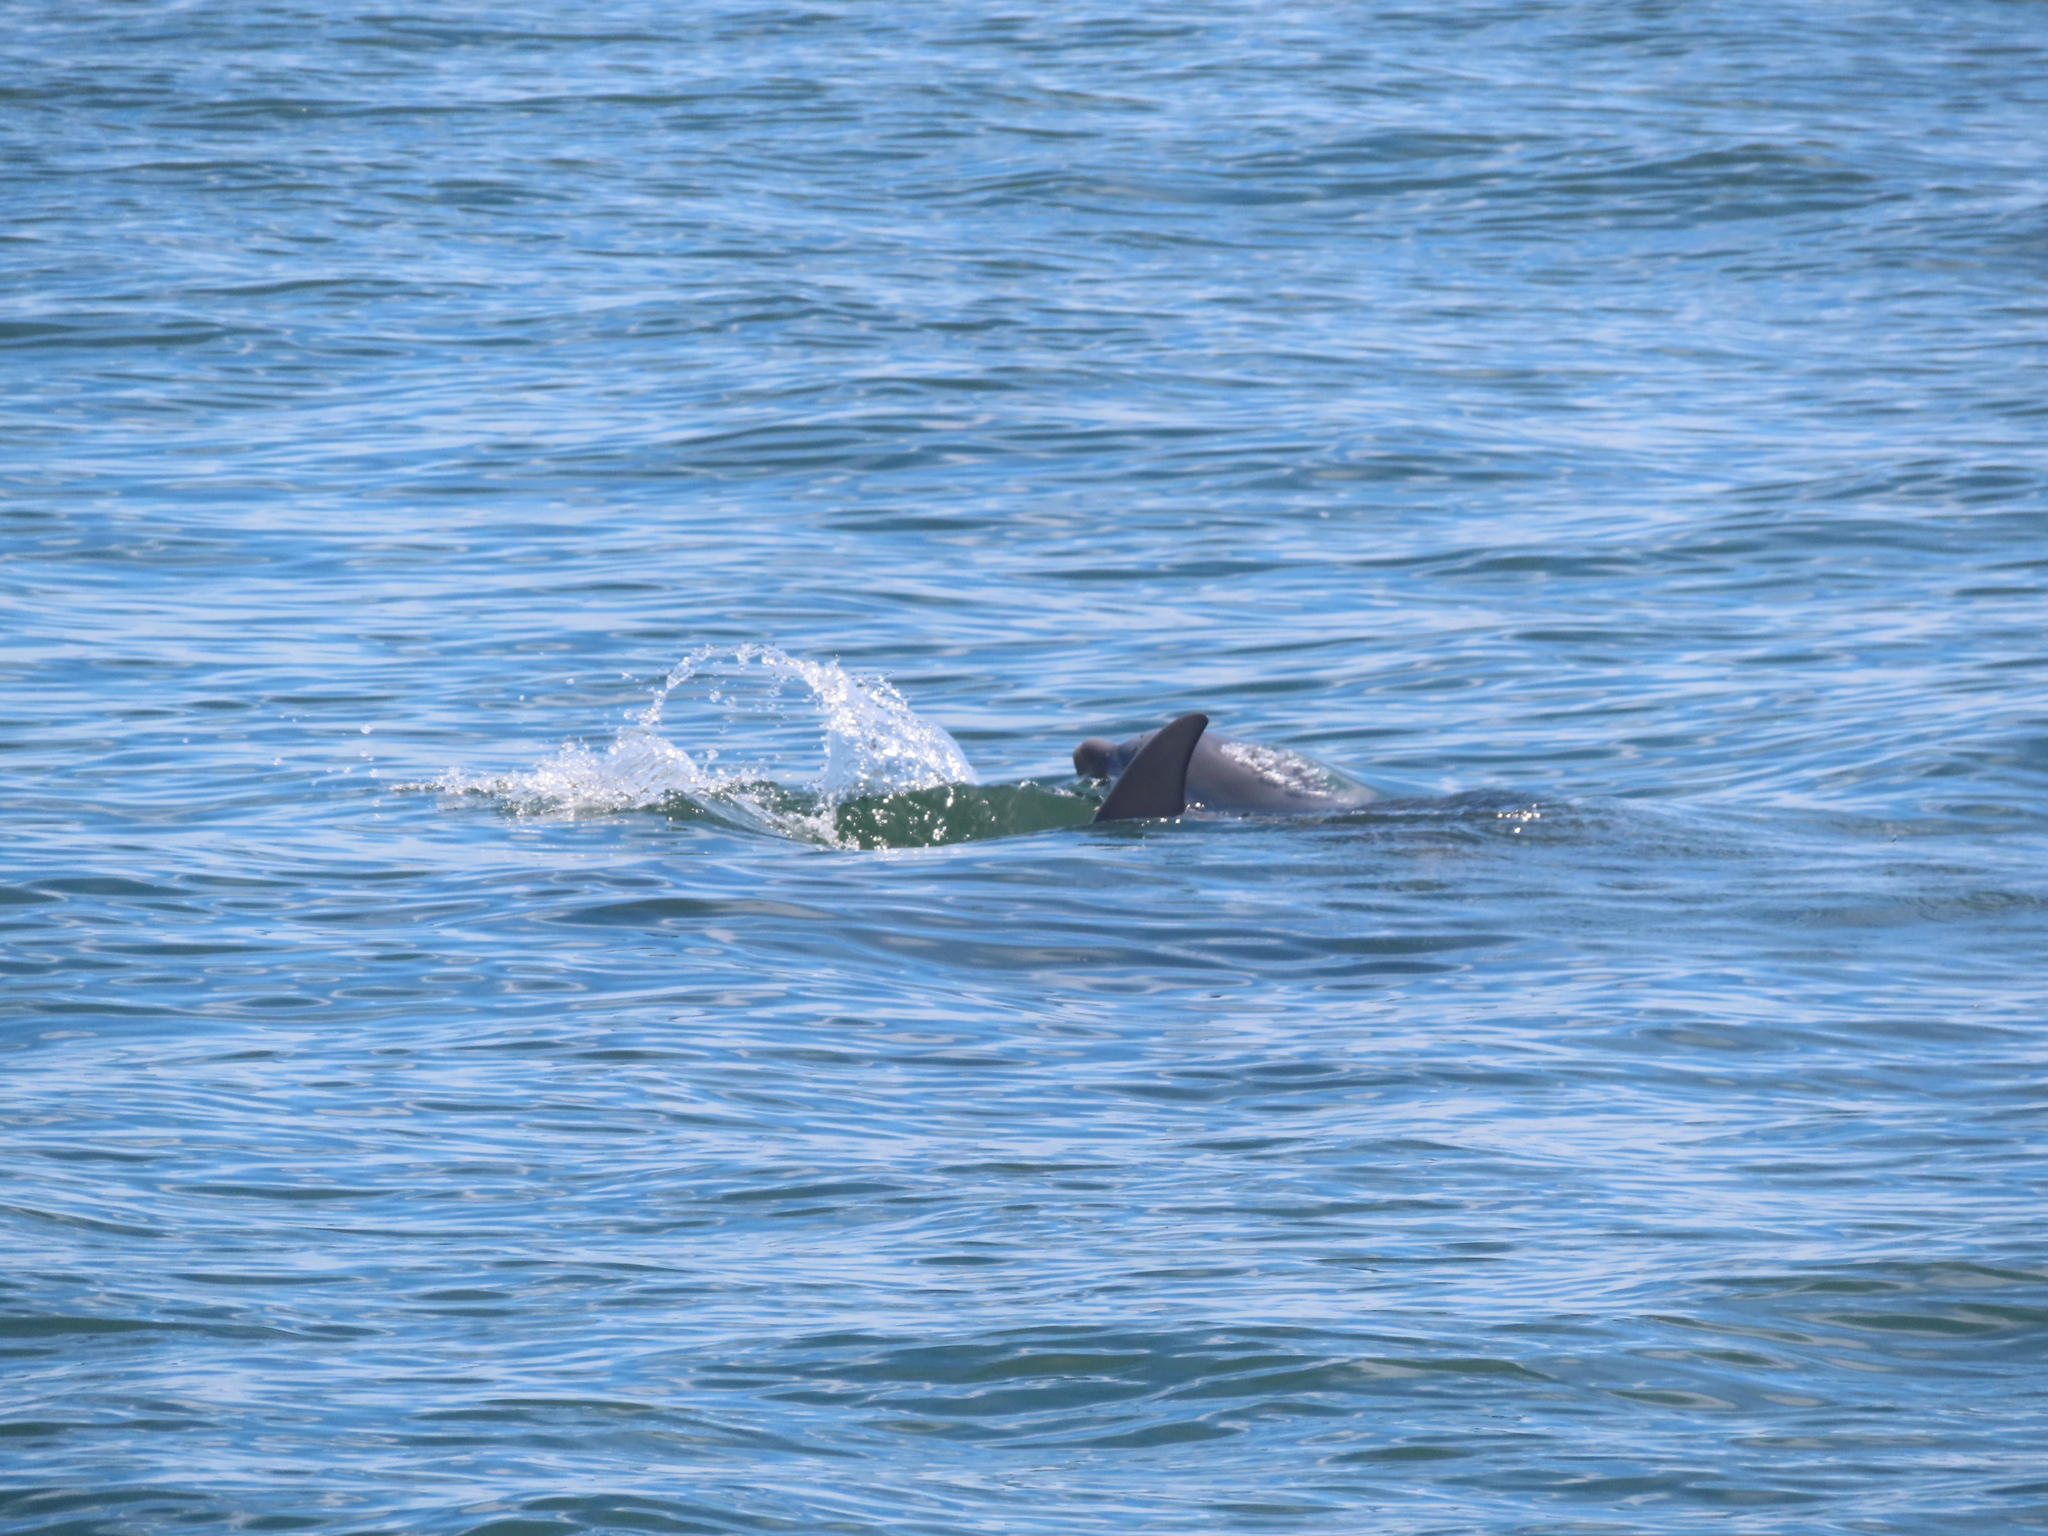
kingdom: Animalia
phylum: Chordata
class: Mammalia
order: Cetacea
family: Delphinidae
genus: Tursiops
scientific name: Tursiops truncatus
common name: Bottlenose dolphin
